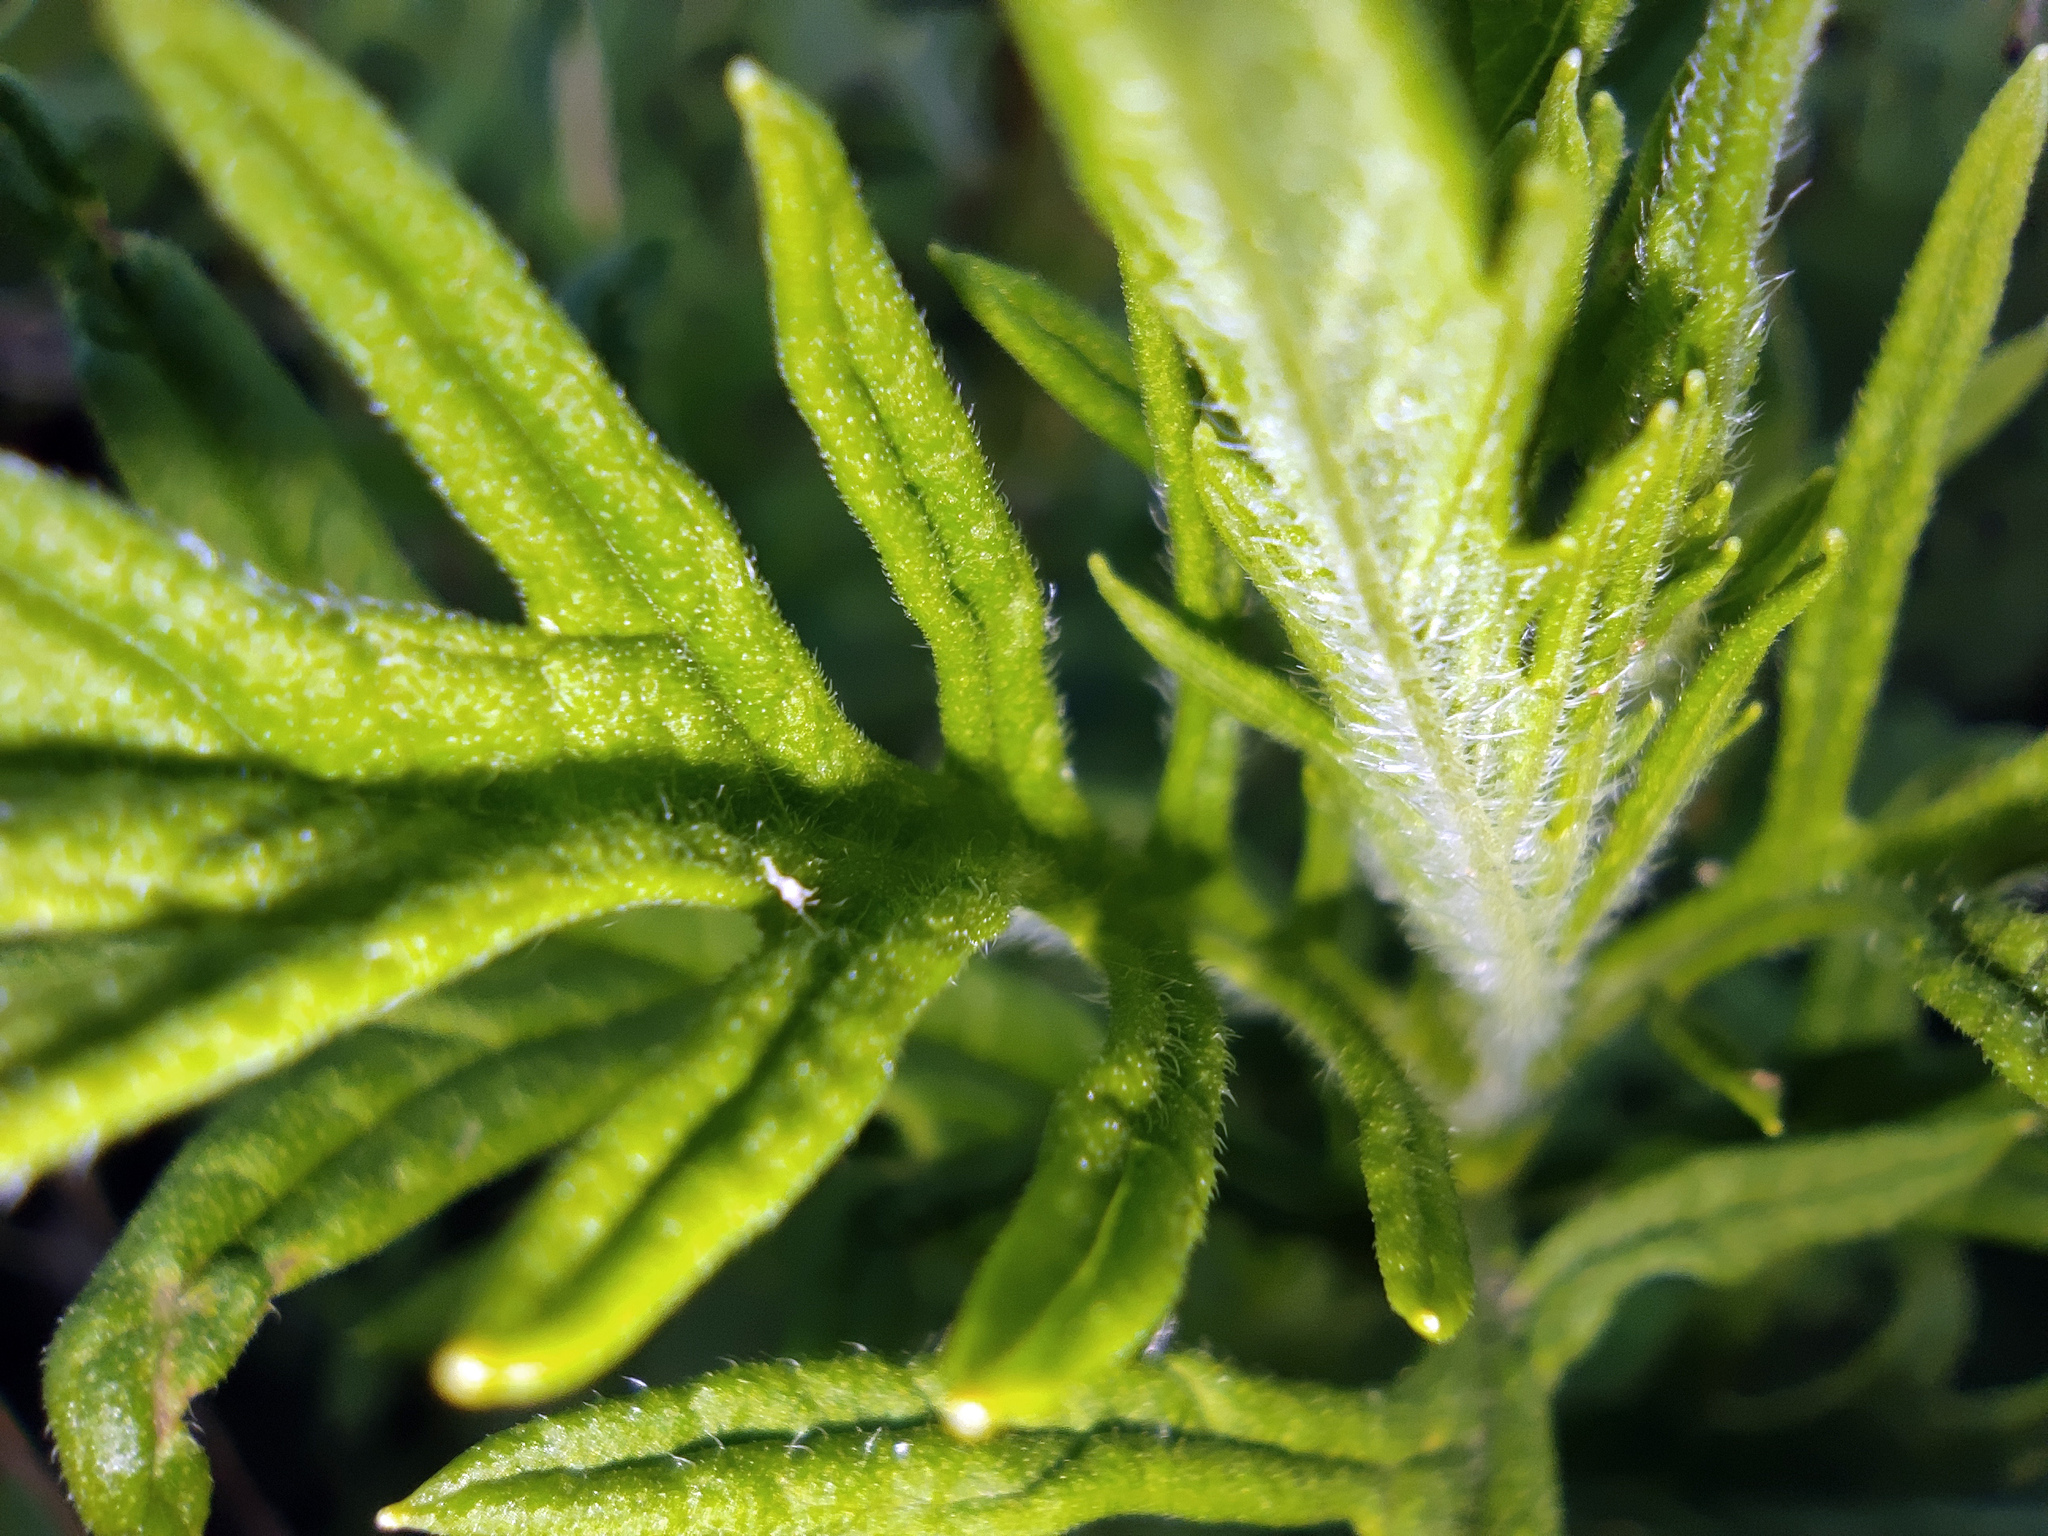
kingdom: Plantae
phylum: Tracheophyta
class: Magnoliopsida
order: Lamiales
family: Lamiaceae
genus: Lycopus
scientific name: Lycopus exaltatus
